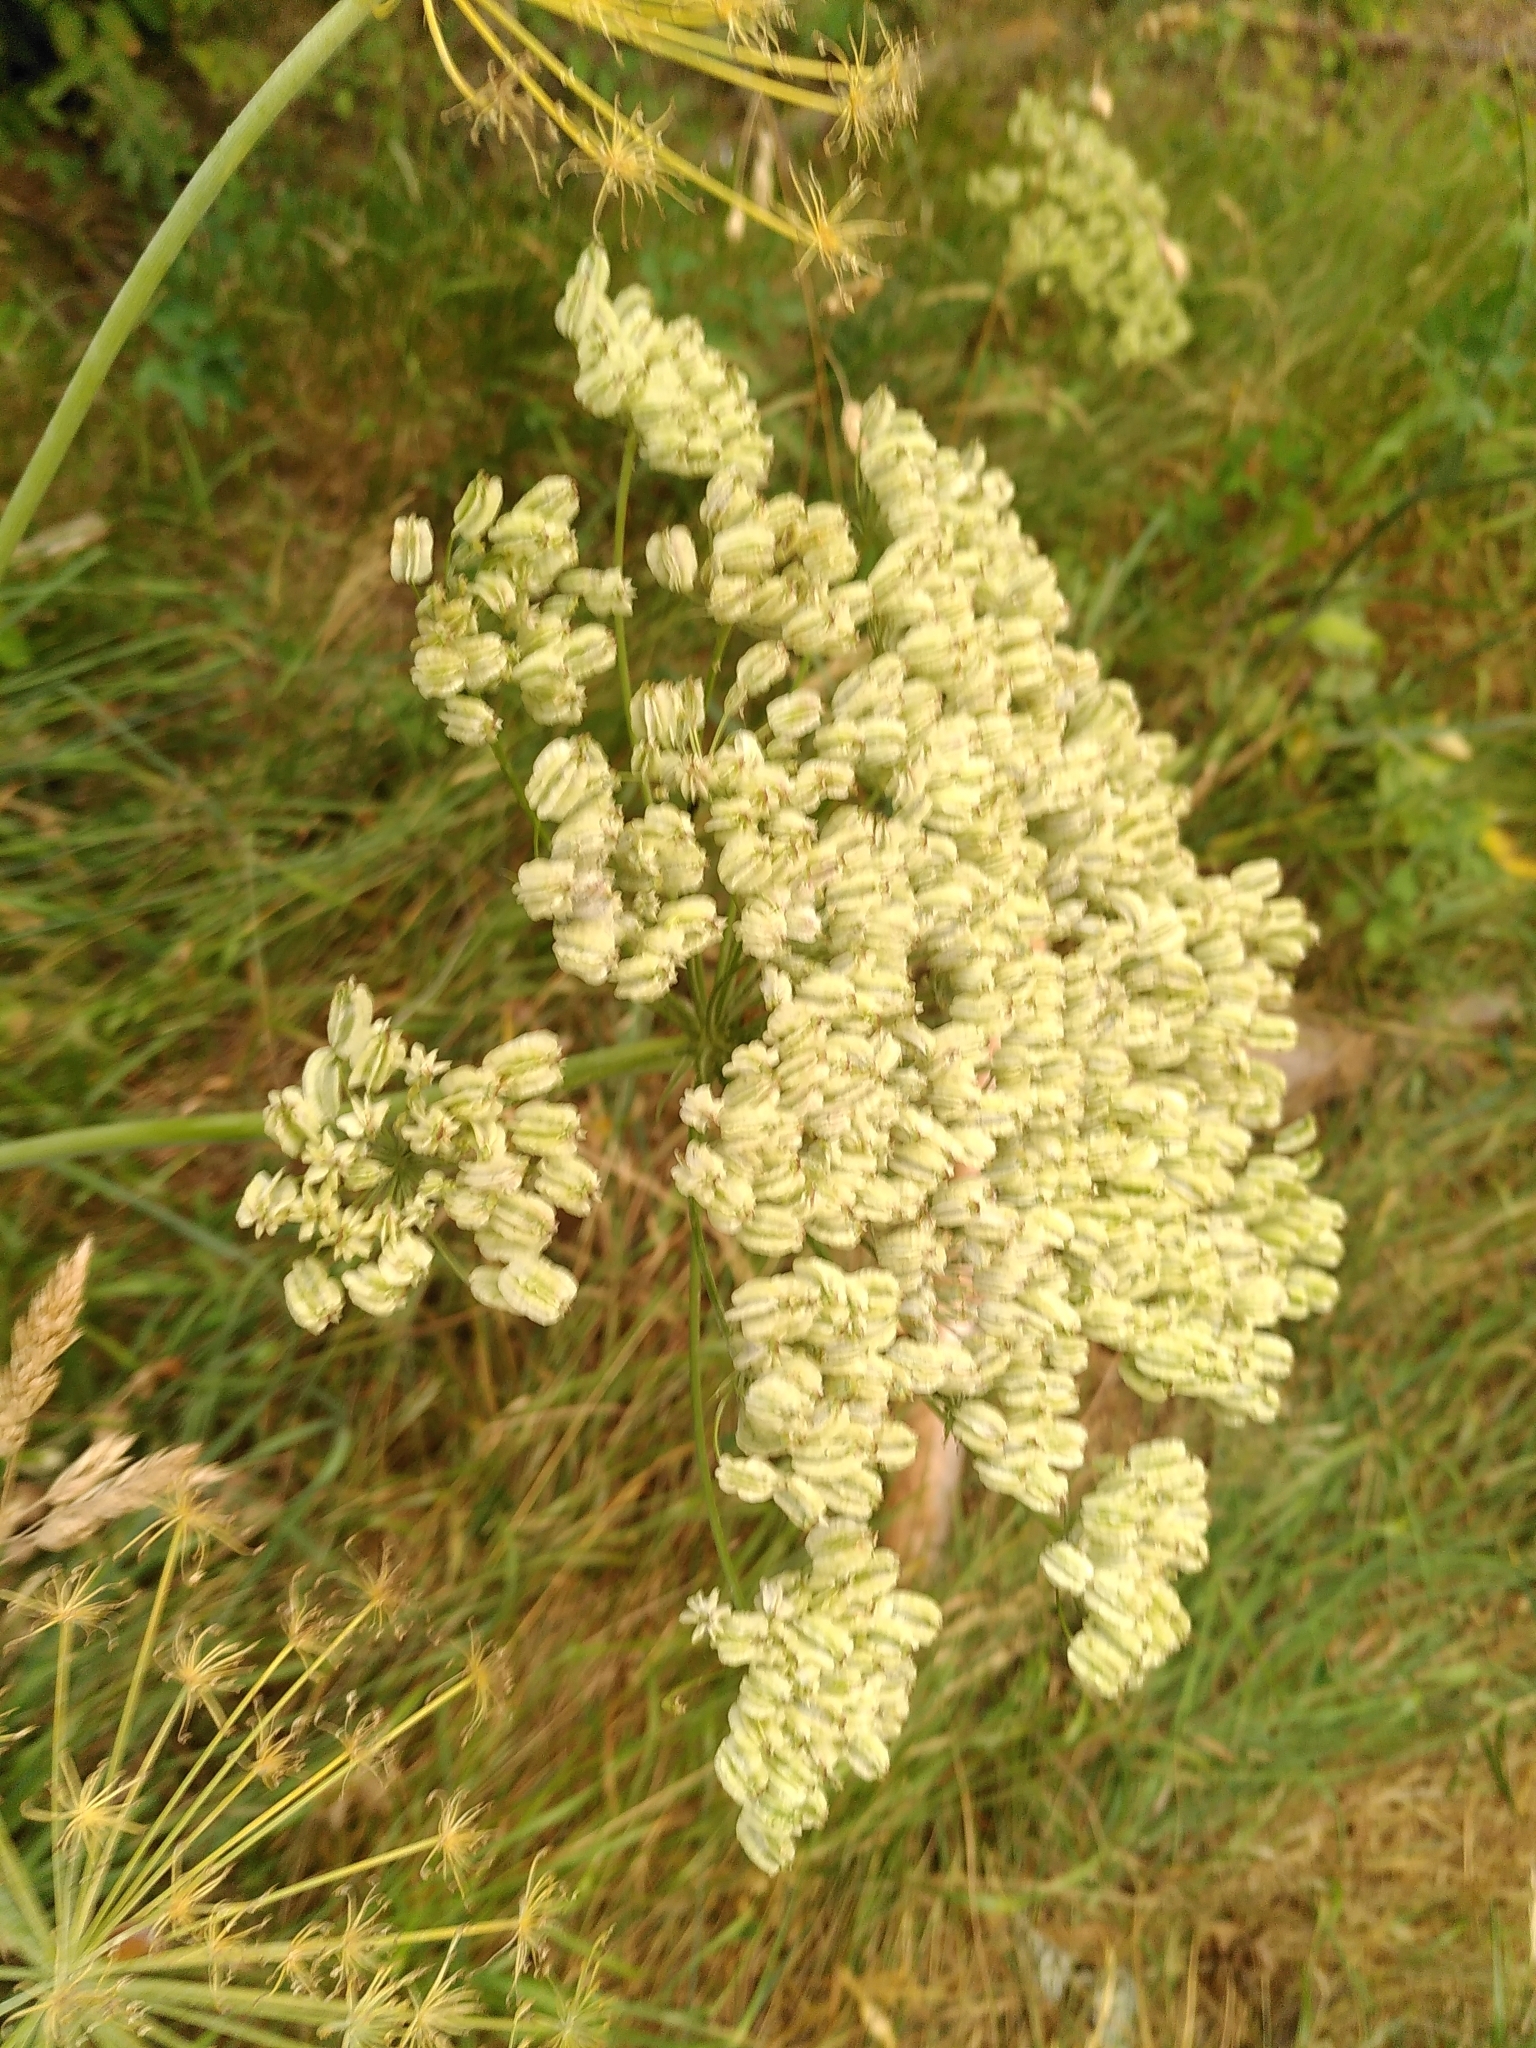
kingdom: Plantae
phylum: Tracheophyta
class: Magnoliopsida
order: Apiales
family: Apiaceae
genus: Laserpitium
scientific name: Laserpitium latifolium
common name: Broadleaf sermountain
